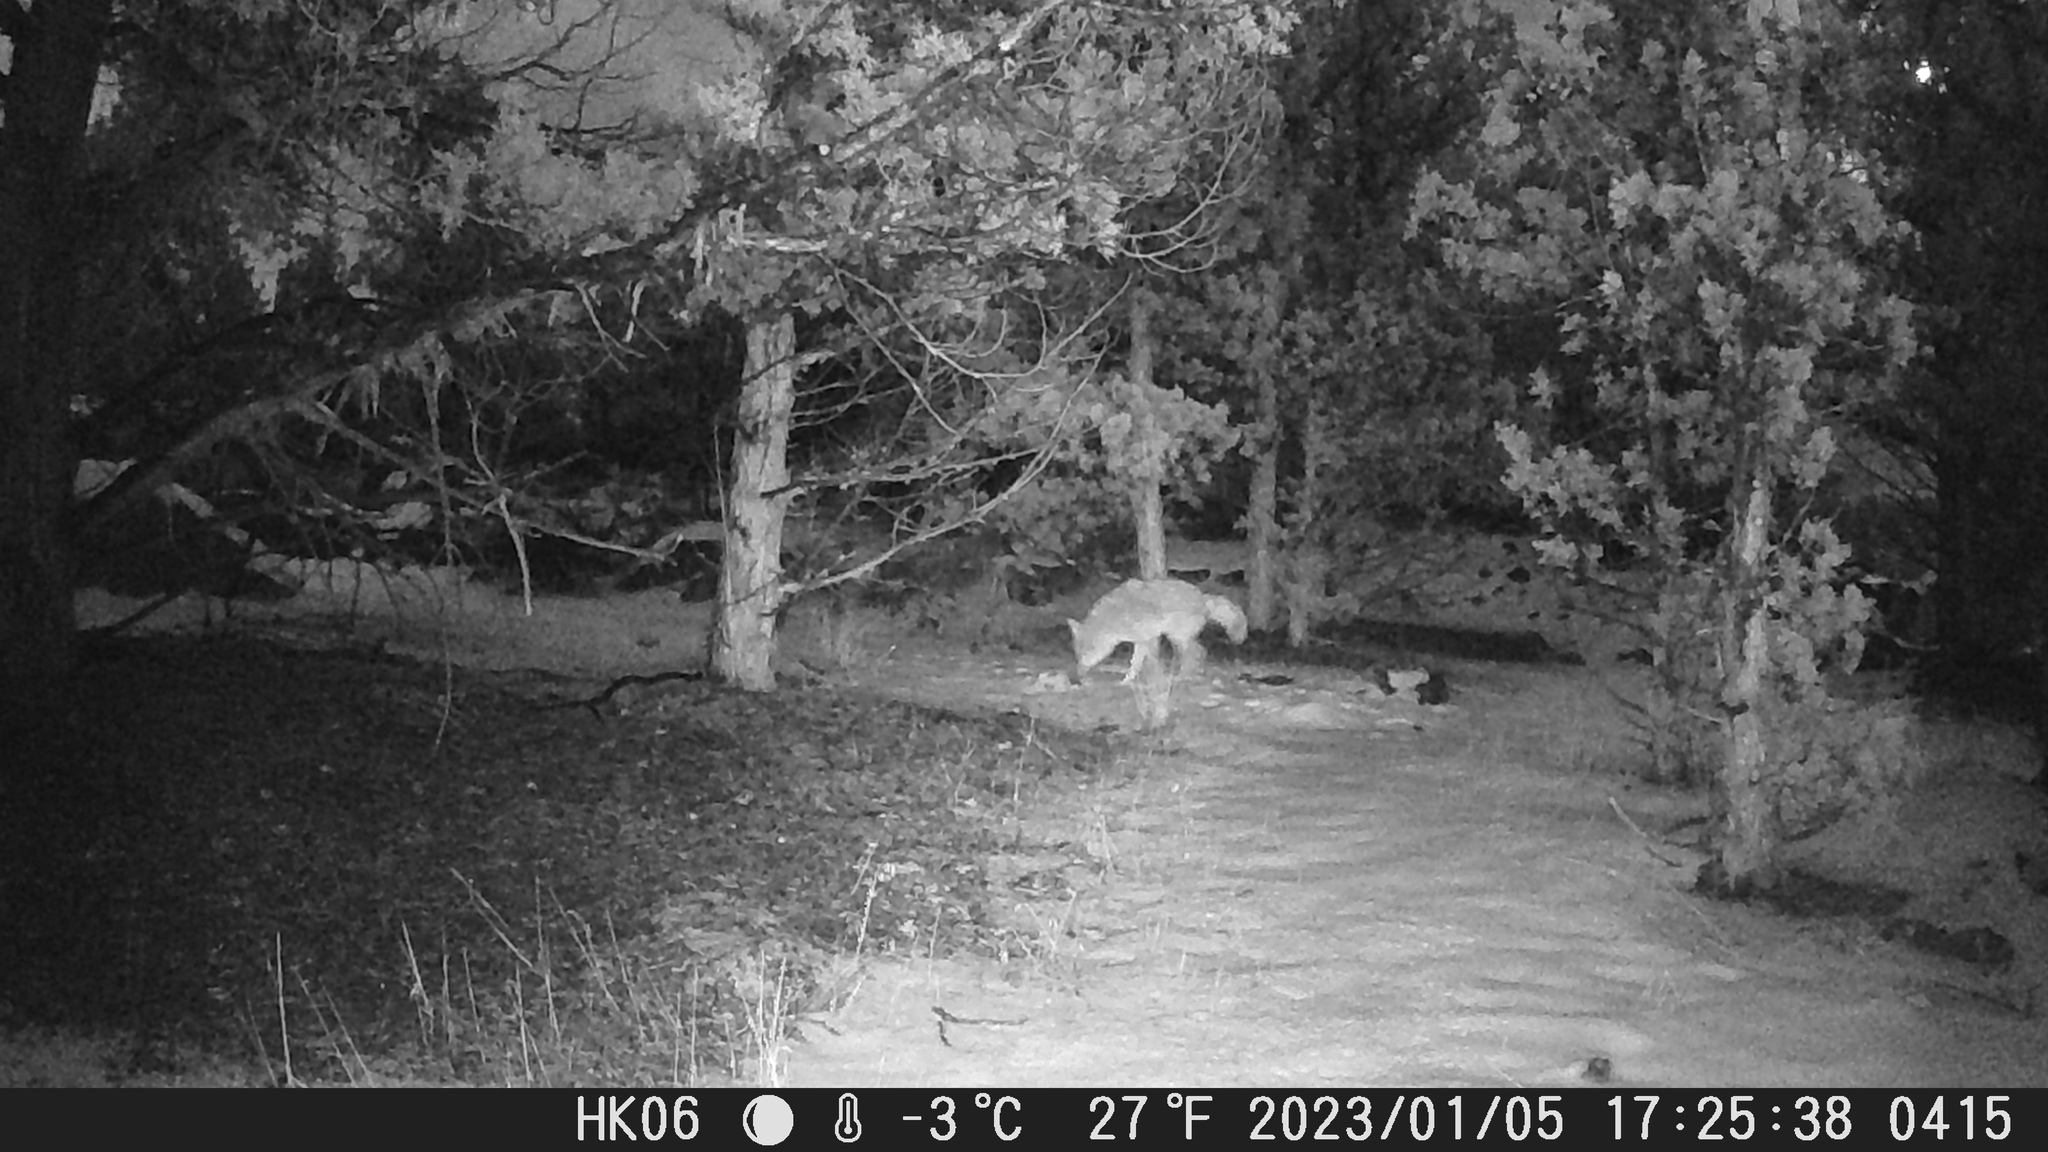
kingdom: Animalia
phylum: Chordata
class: Mammalia
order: Carnivora
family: Canidae
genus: Canis
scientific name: Canis latrans
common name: Coyote
